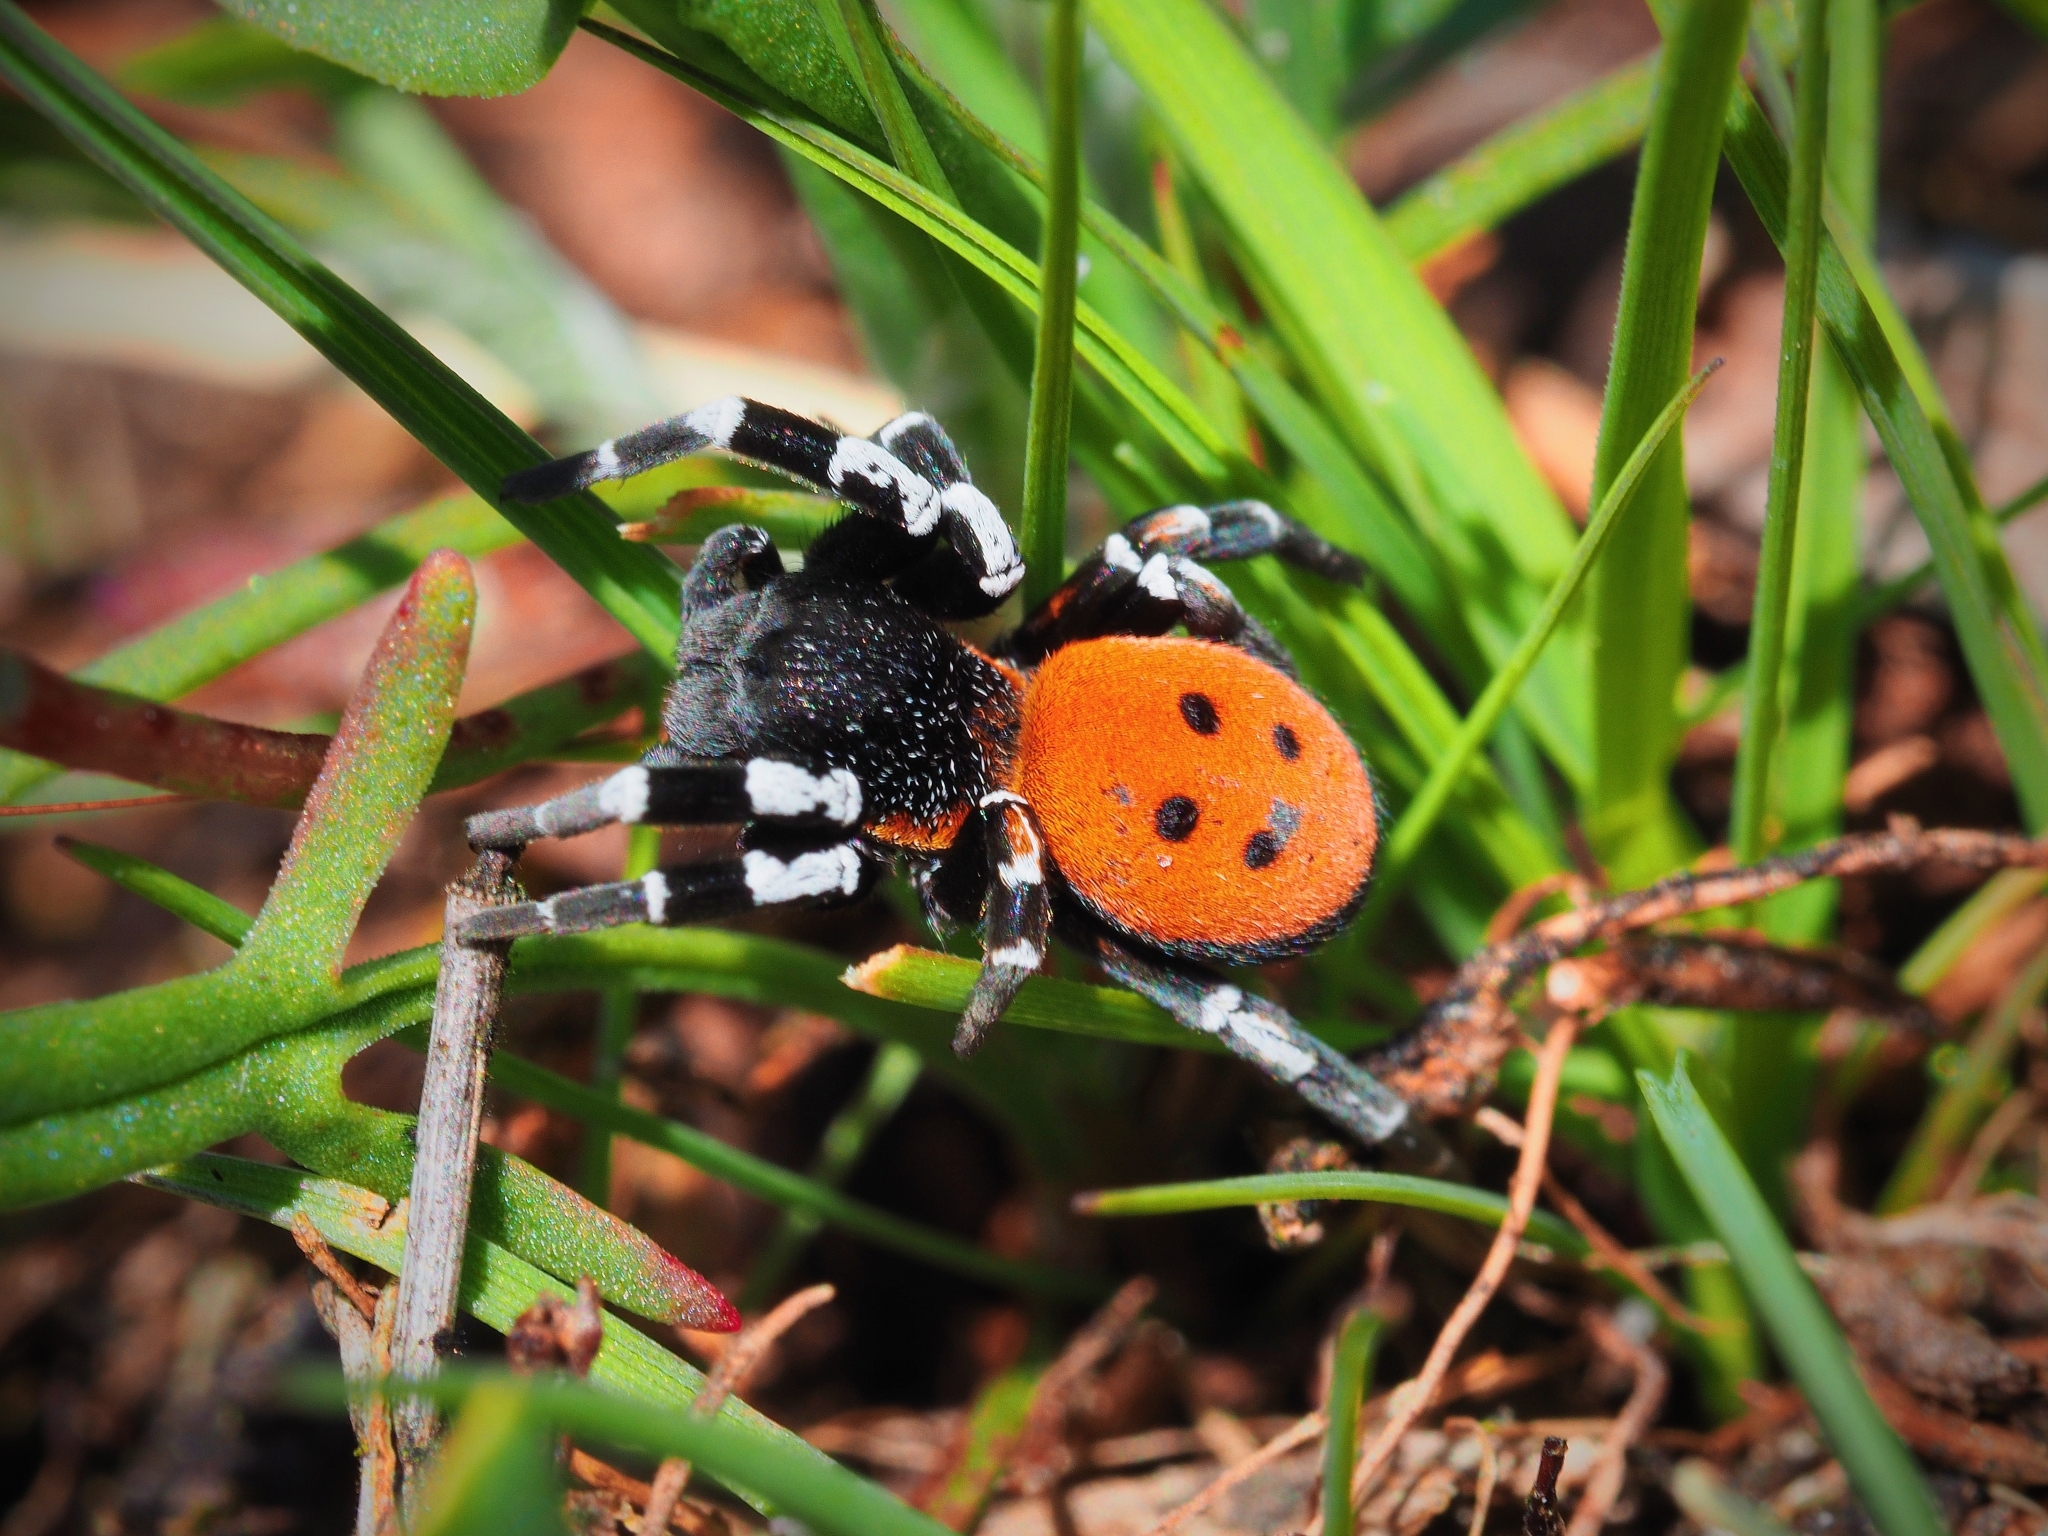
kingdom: Animalia
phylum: Arthropoda
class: Arachnida
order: Araneae
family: Eresidae
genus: Eresus
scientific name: Eresus sandaliatus
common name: Ladybird spider
